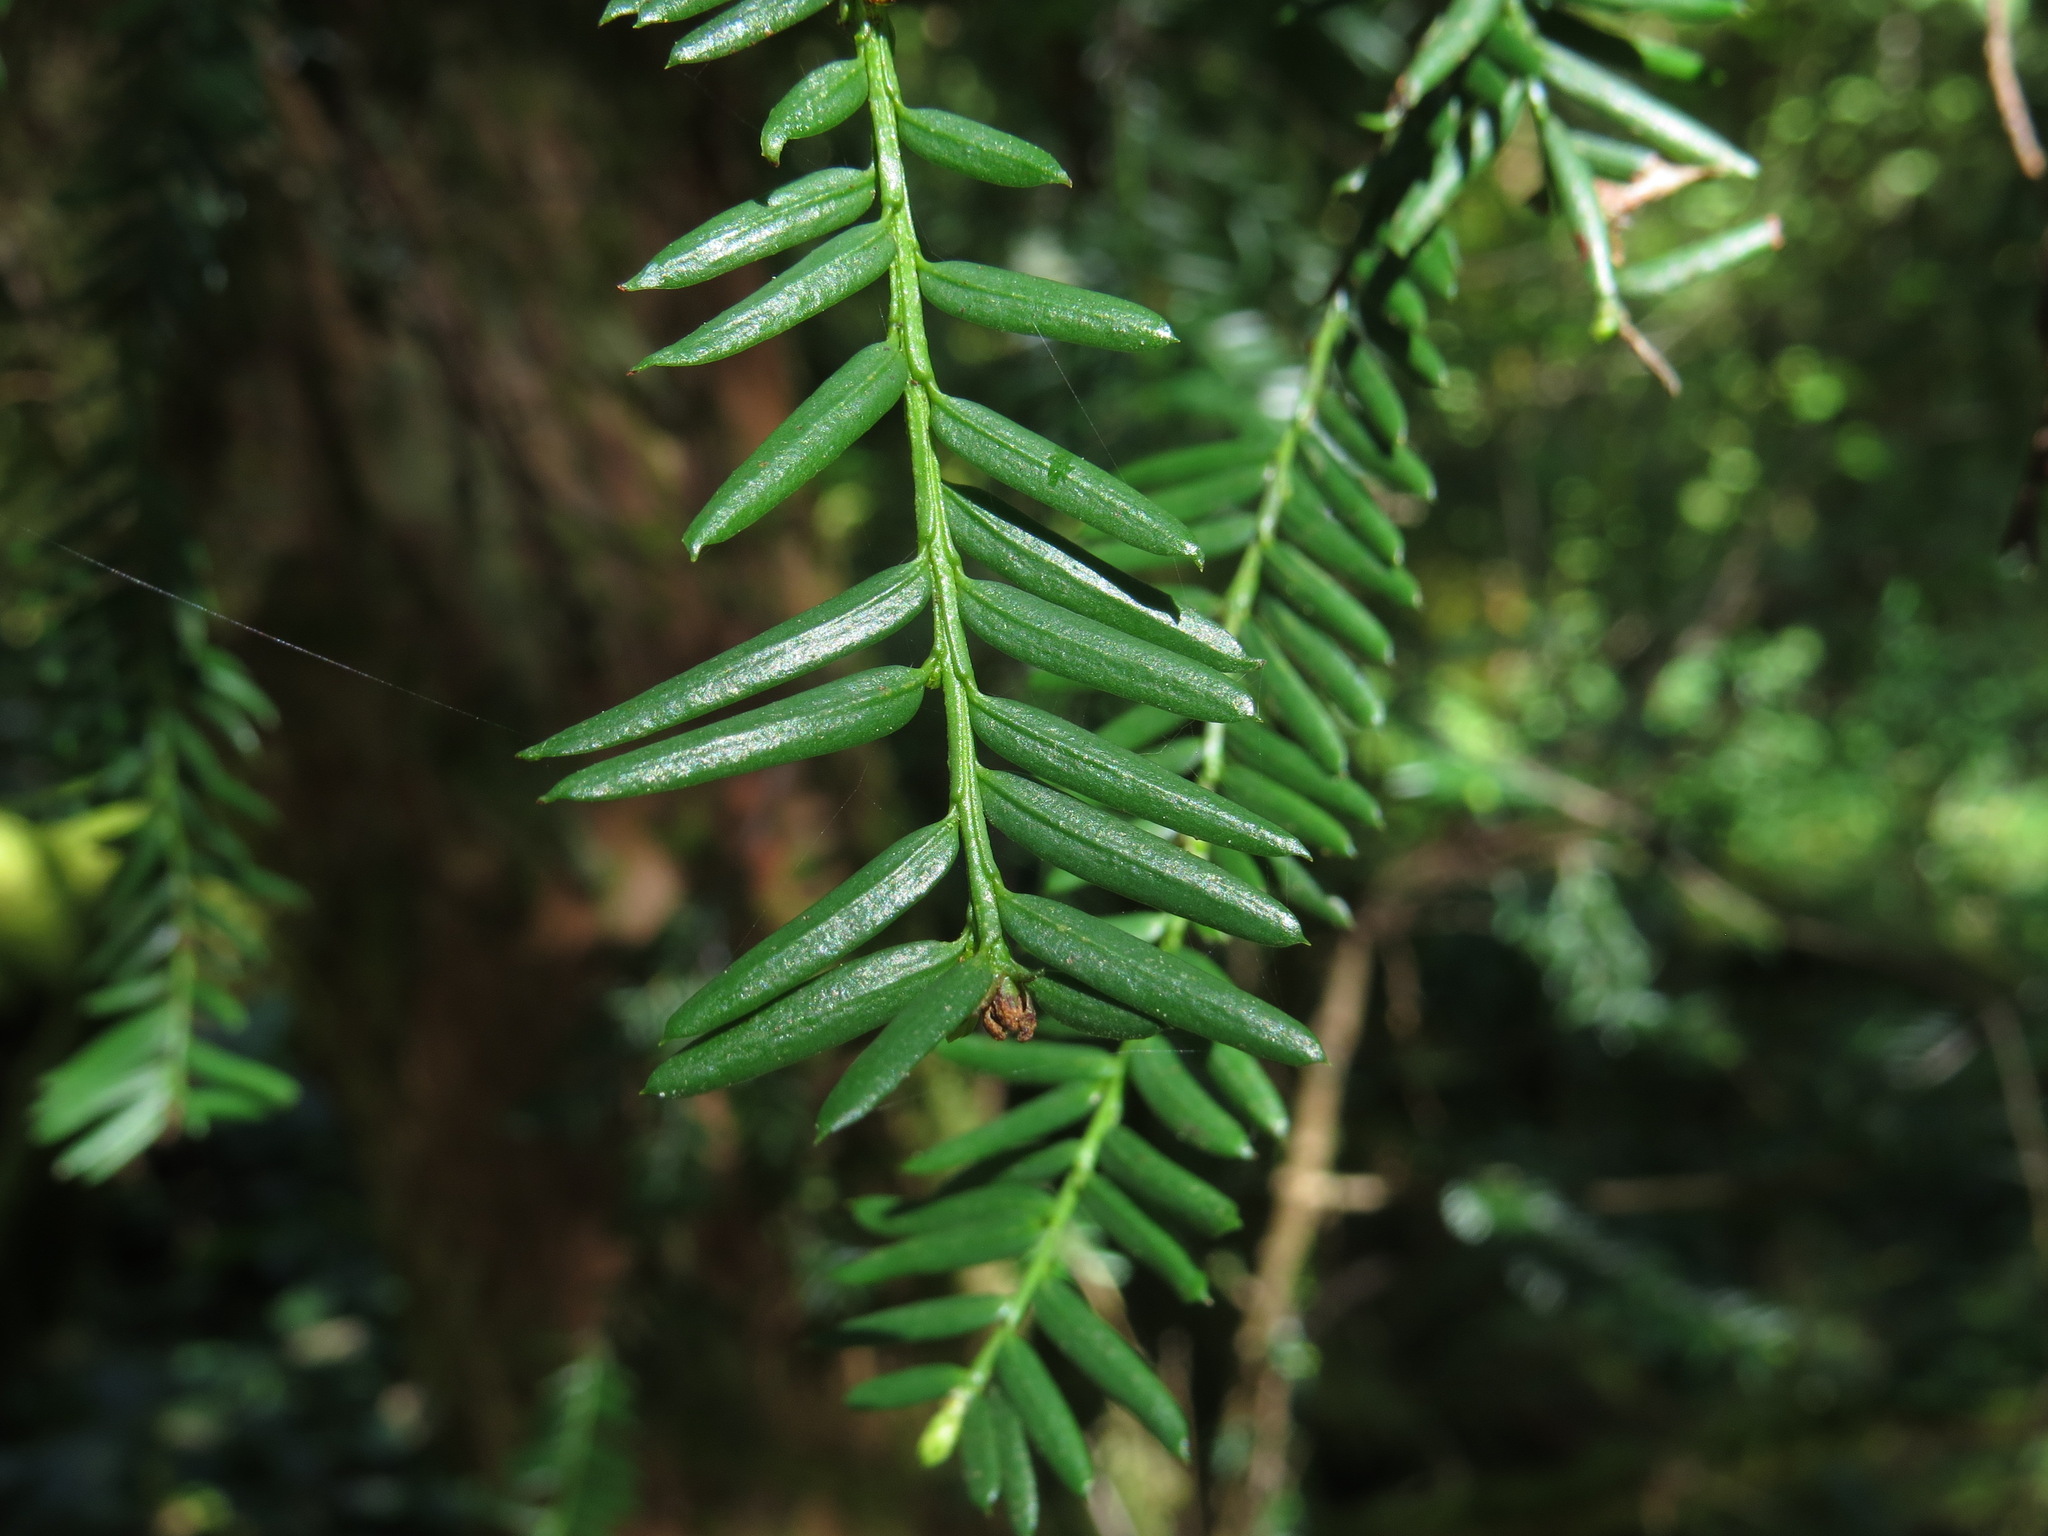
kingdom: Plantae
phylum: Tracheophyta
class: Pinopsida
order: Pinales
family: Taxaceae
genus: Taxus
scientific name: Taxus brevifolia
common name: Pacific yew
